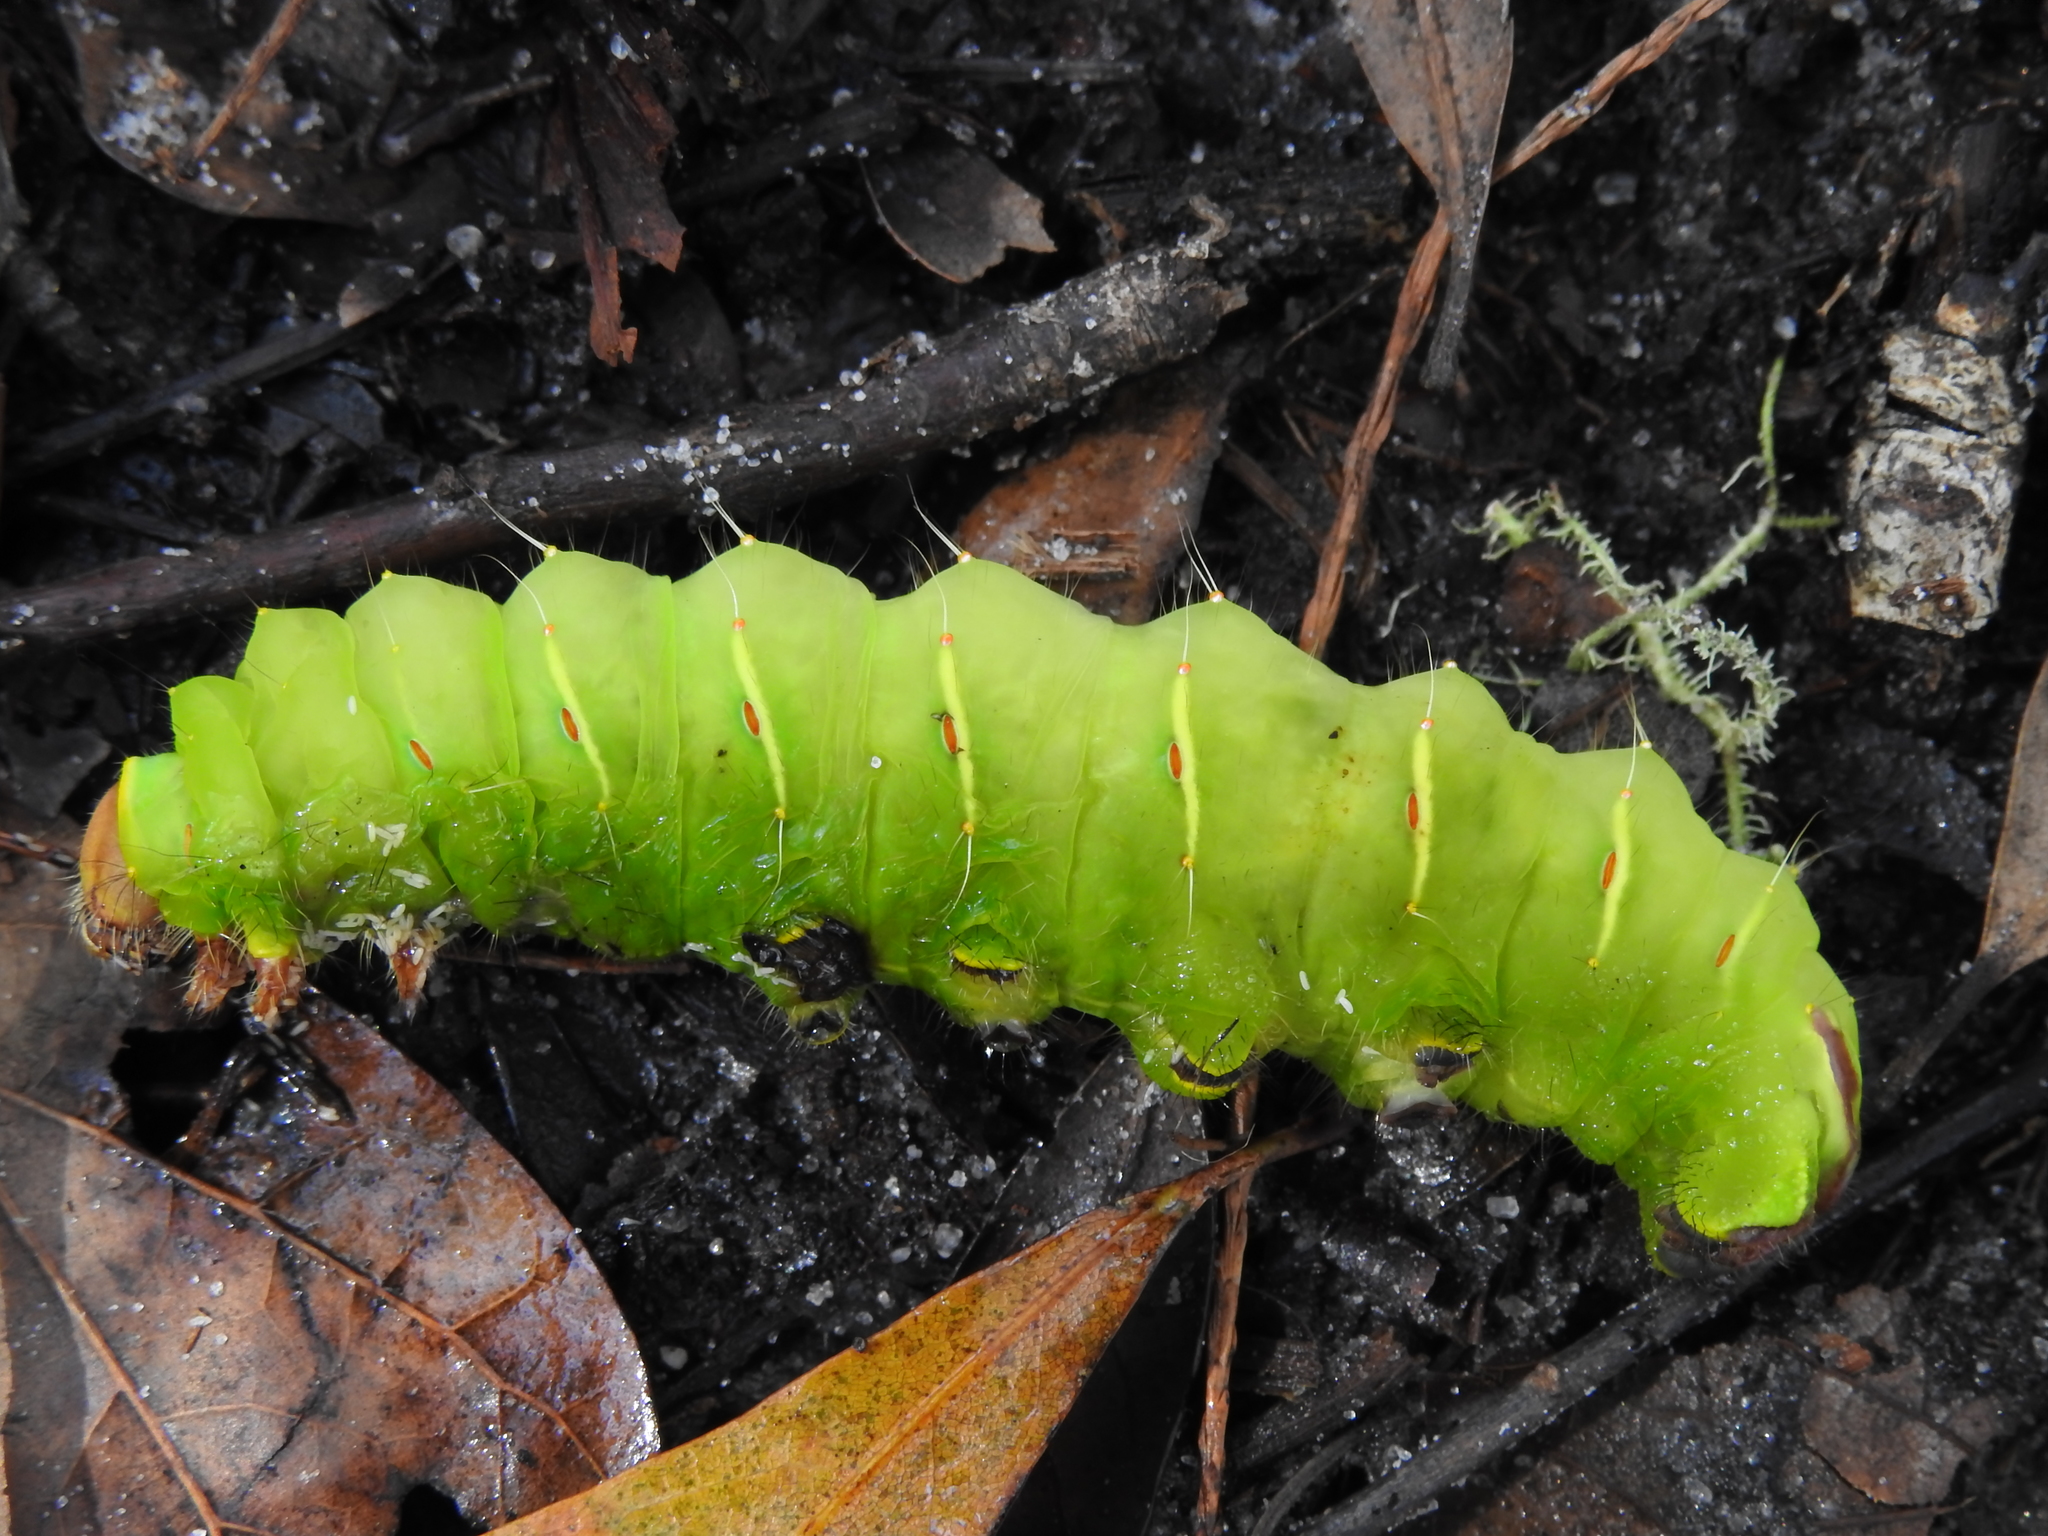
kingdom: Animalia
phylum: Arthropoda
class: Insecta
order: Lepidoptera
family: Saturniidae
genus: Antheraea
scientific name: Antheraea polyphemus
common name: Polyphemus moth
